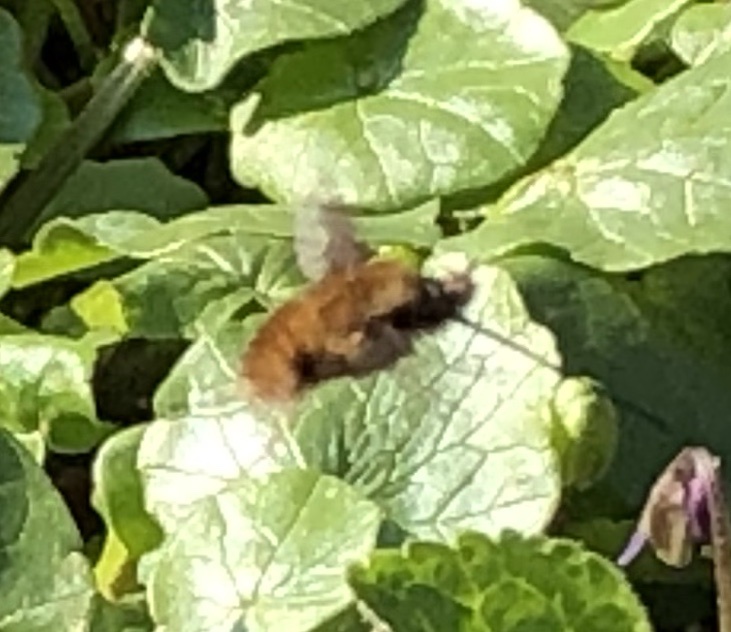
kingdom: Animalia
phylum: Arthropoda
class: Insecta
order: Diptera
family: Bombyliidae
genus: Bombylius
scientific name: Bombylius major
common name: Bee fly
